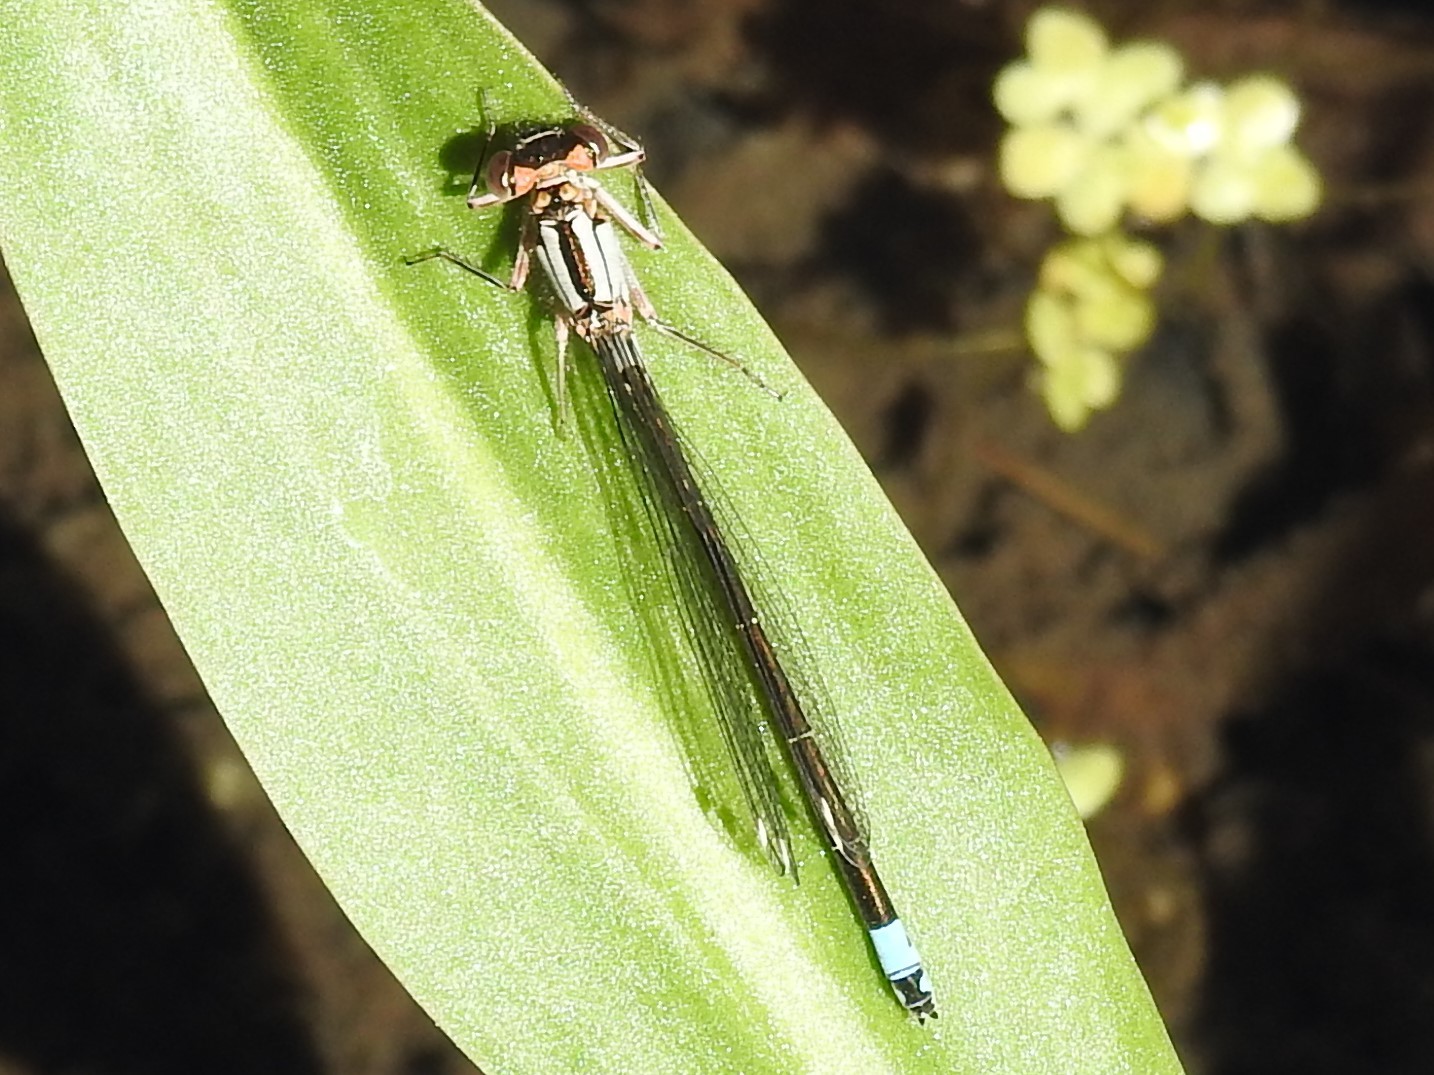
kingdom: Animalia
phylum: Arthropoda
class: Insecta
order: Odonata
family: Coenagrionidae
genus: Ischnura
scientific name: Ischnura cervula
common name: Pacific forktail
